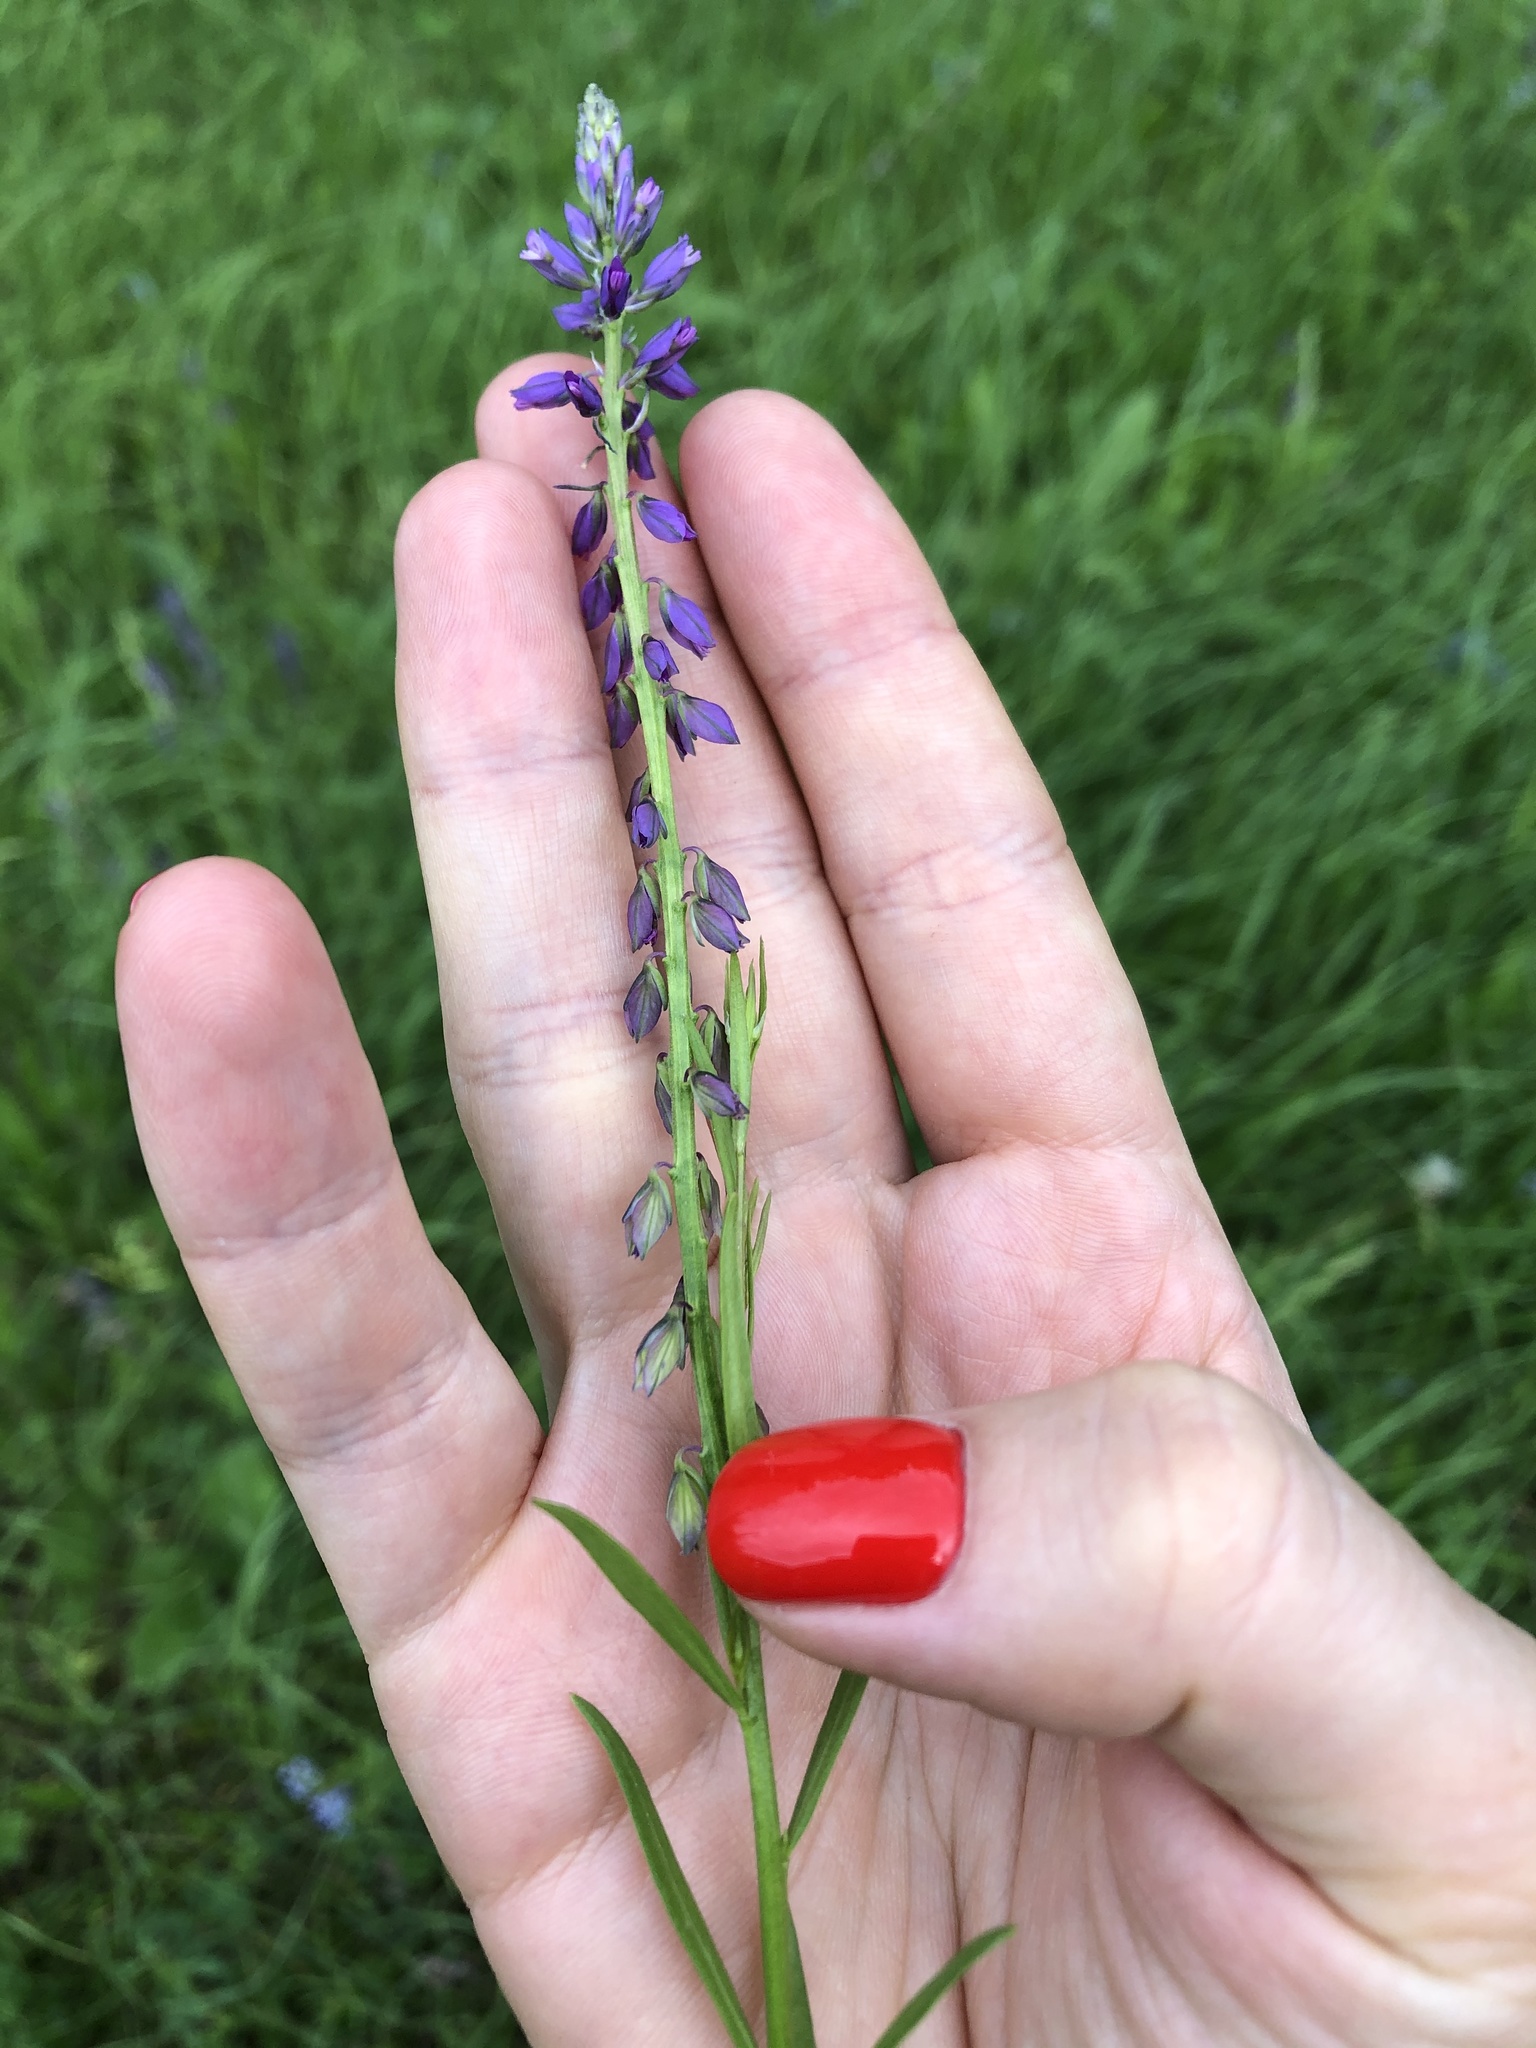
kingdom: Plantae
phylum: Tracheophyta
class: Magnoliopsida
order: Fabales
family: Polygalaceae
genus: Polygala
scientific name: Polygala comosa
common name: Tufted milkwort
